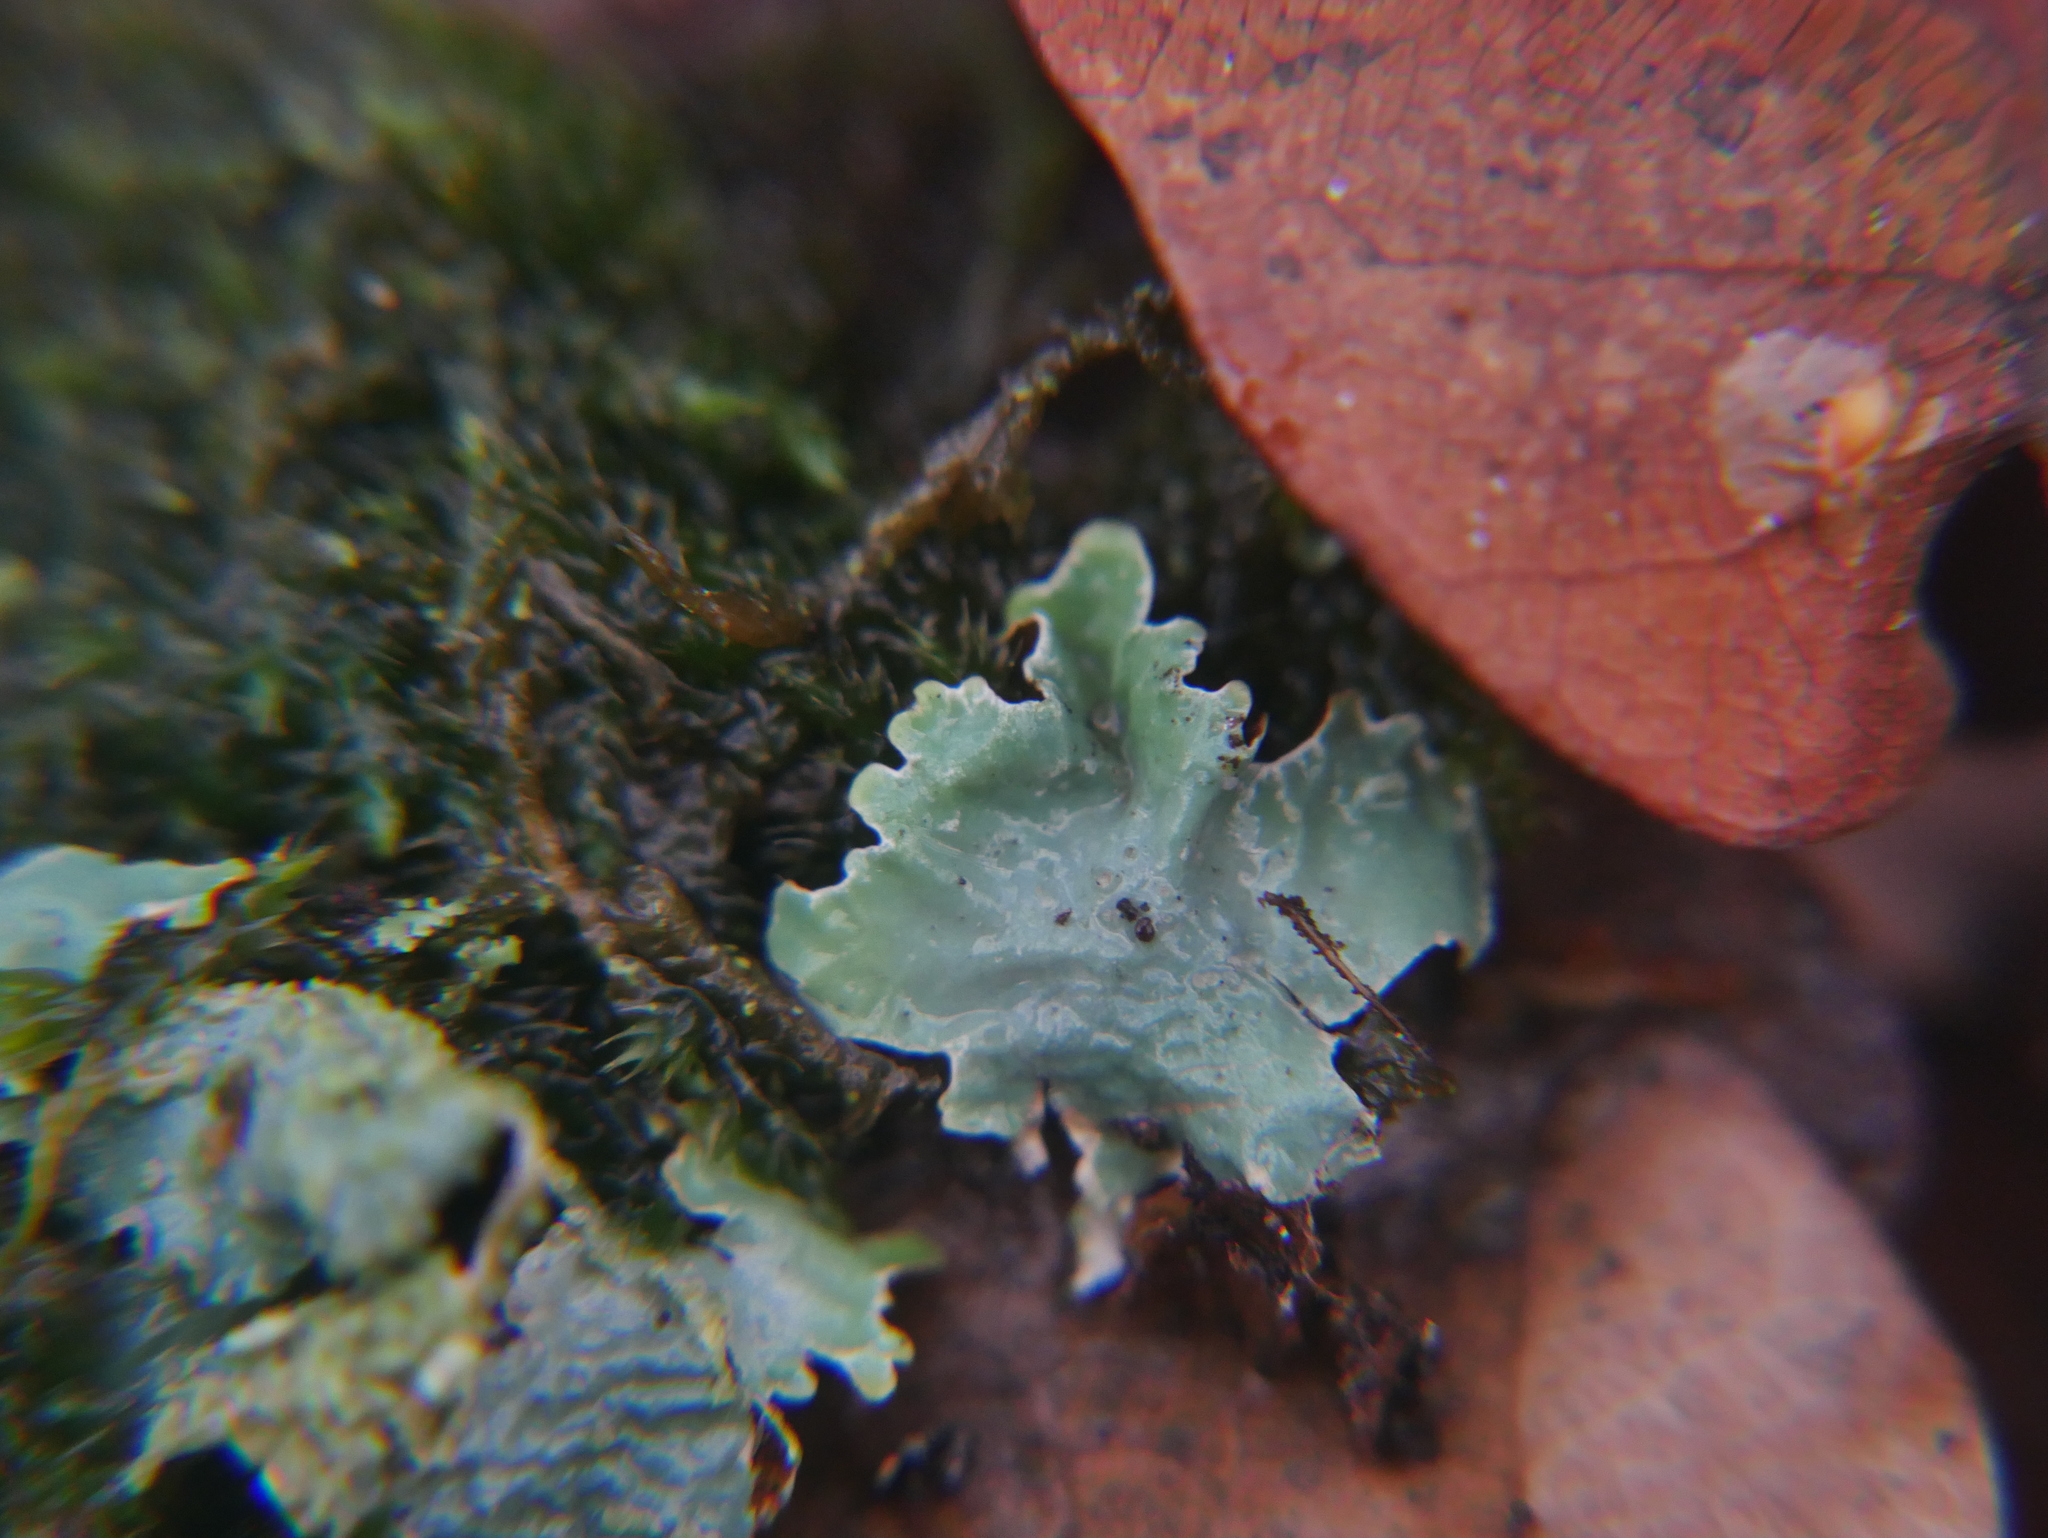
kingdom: Fungi
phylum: Ascomycota
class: Lecanoromycetes
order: Lecanorales
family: Parmeliaceae
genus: Parmelia
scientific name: Parmelia sulcata
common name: Netted shield lichen
